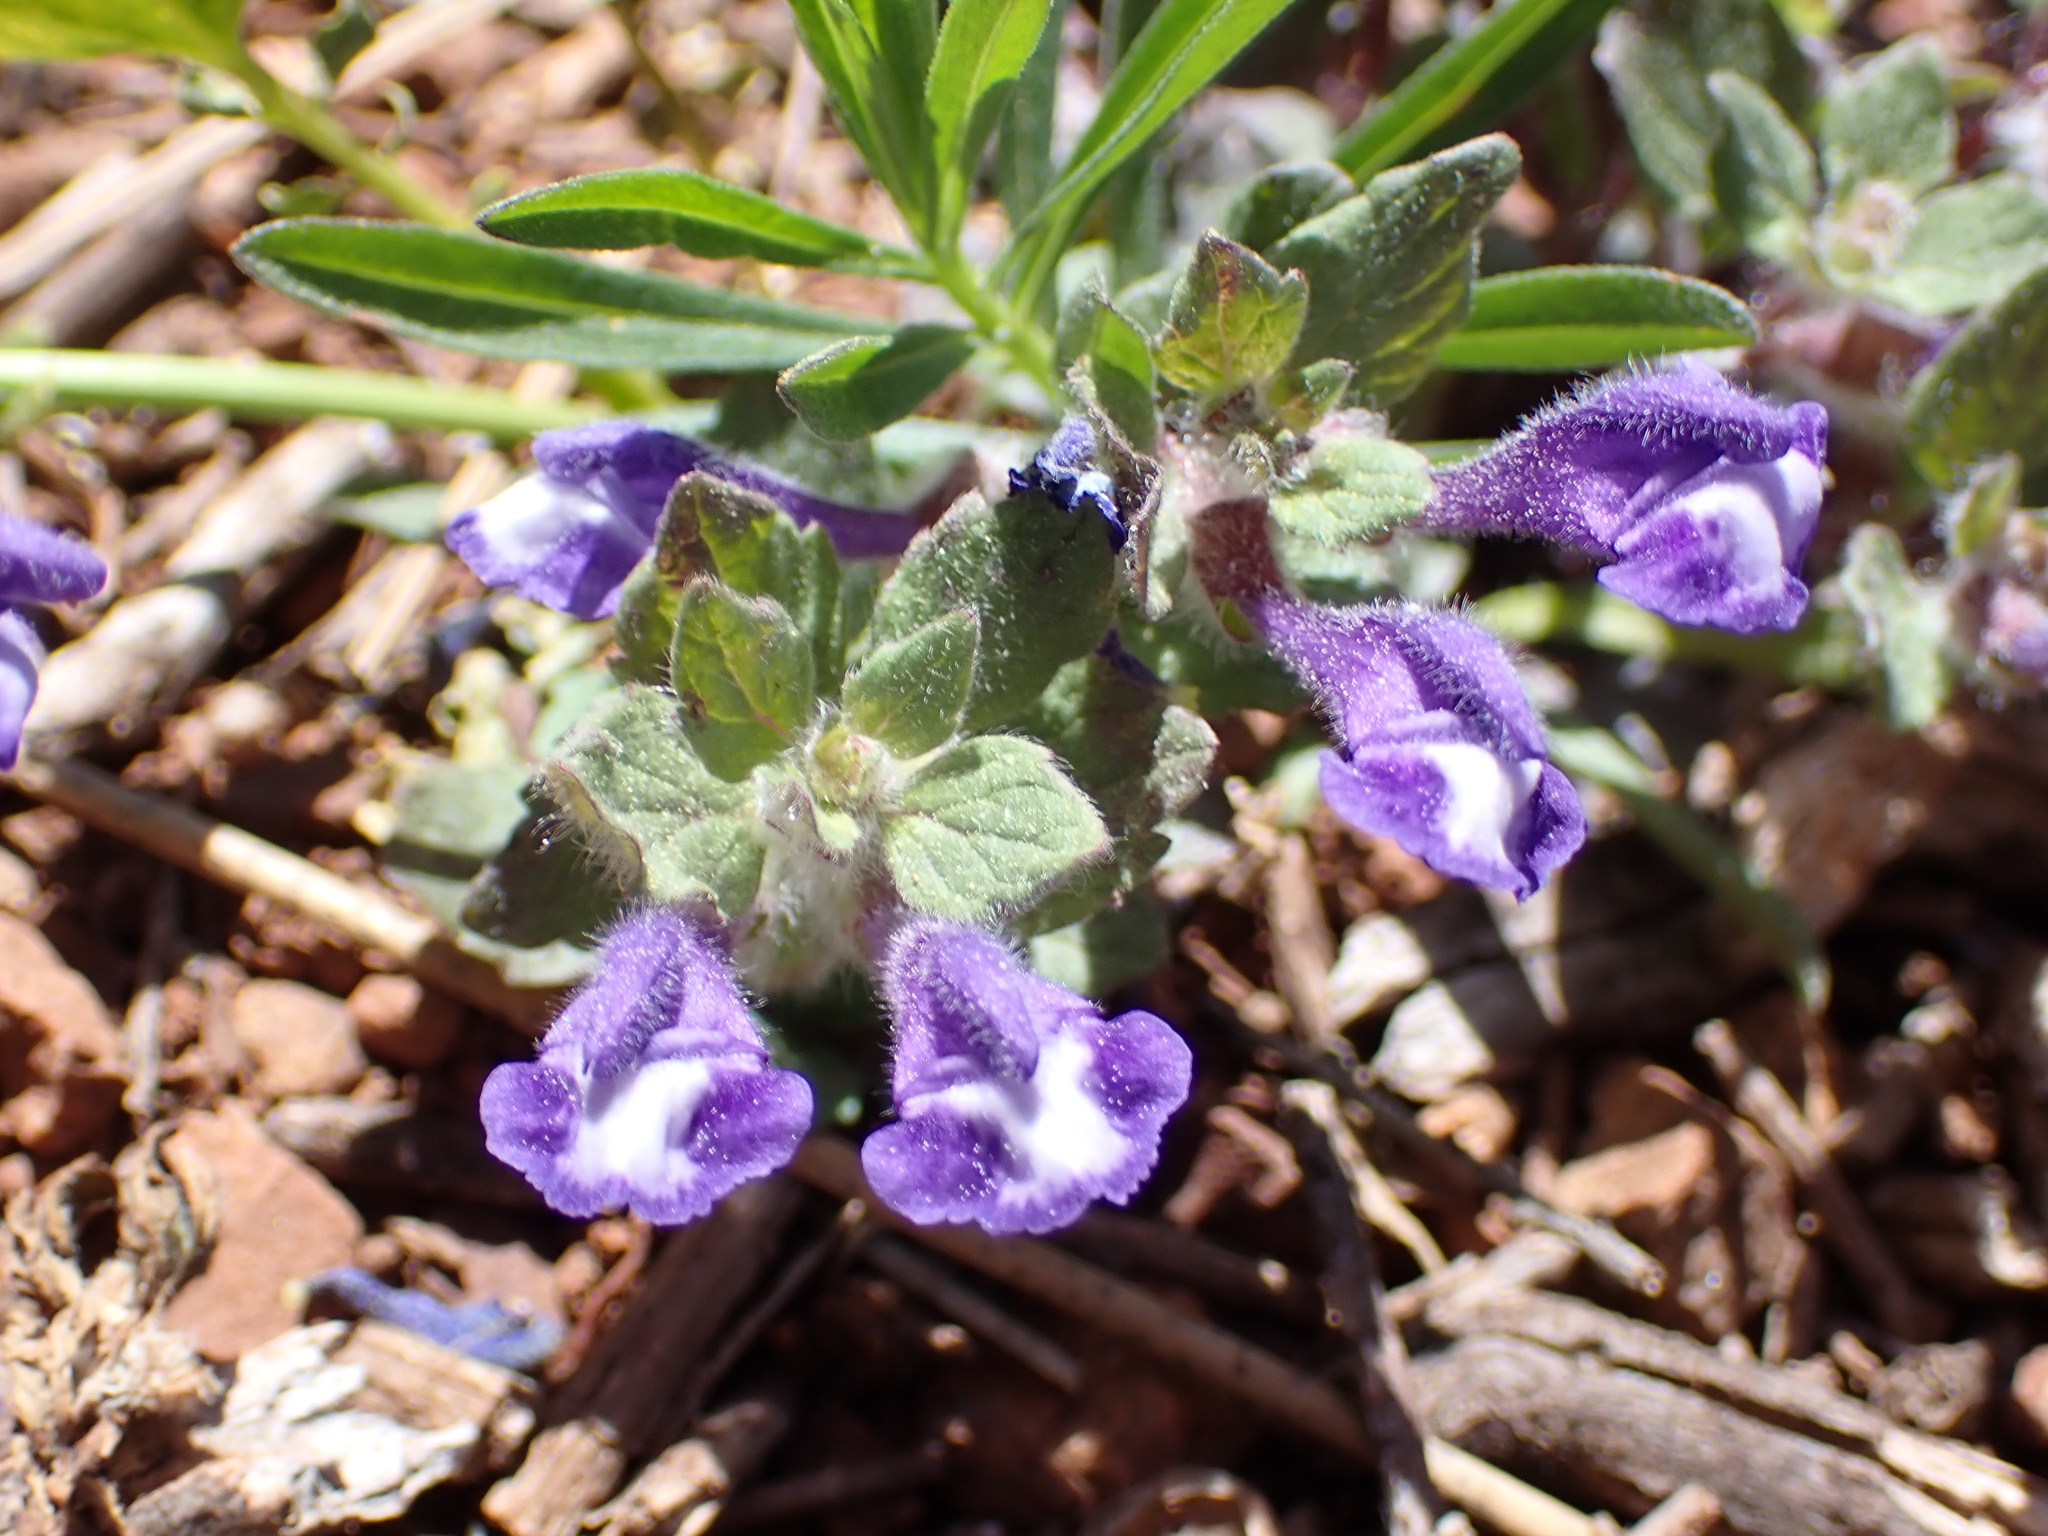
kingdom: Plantae
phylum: Tracheophyta
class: Magnoliopsida
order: Lamiales
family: Lamiaceae
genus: Scutellaria
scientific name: Scutellaria tuberosa
